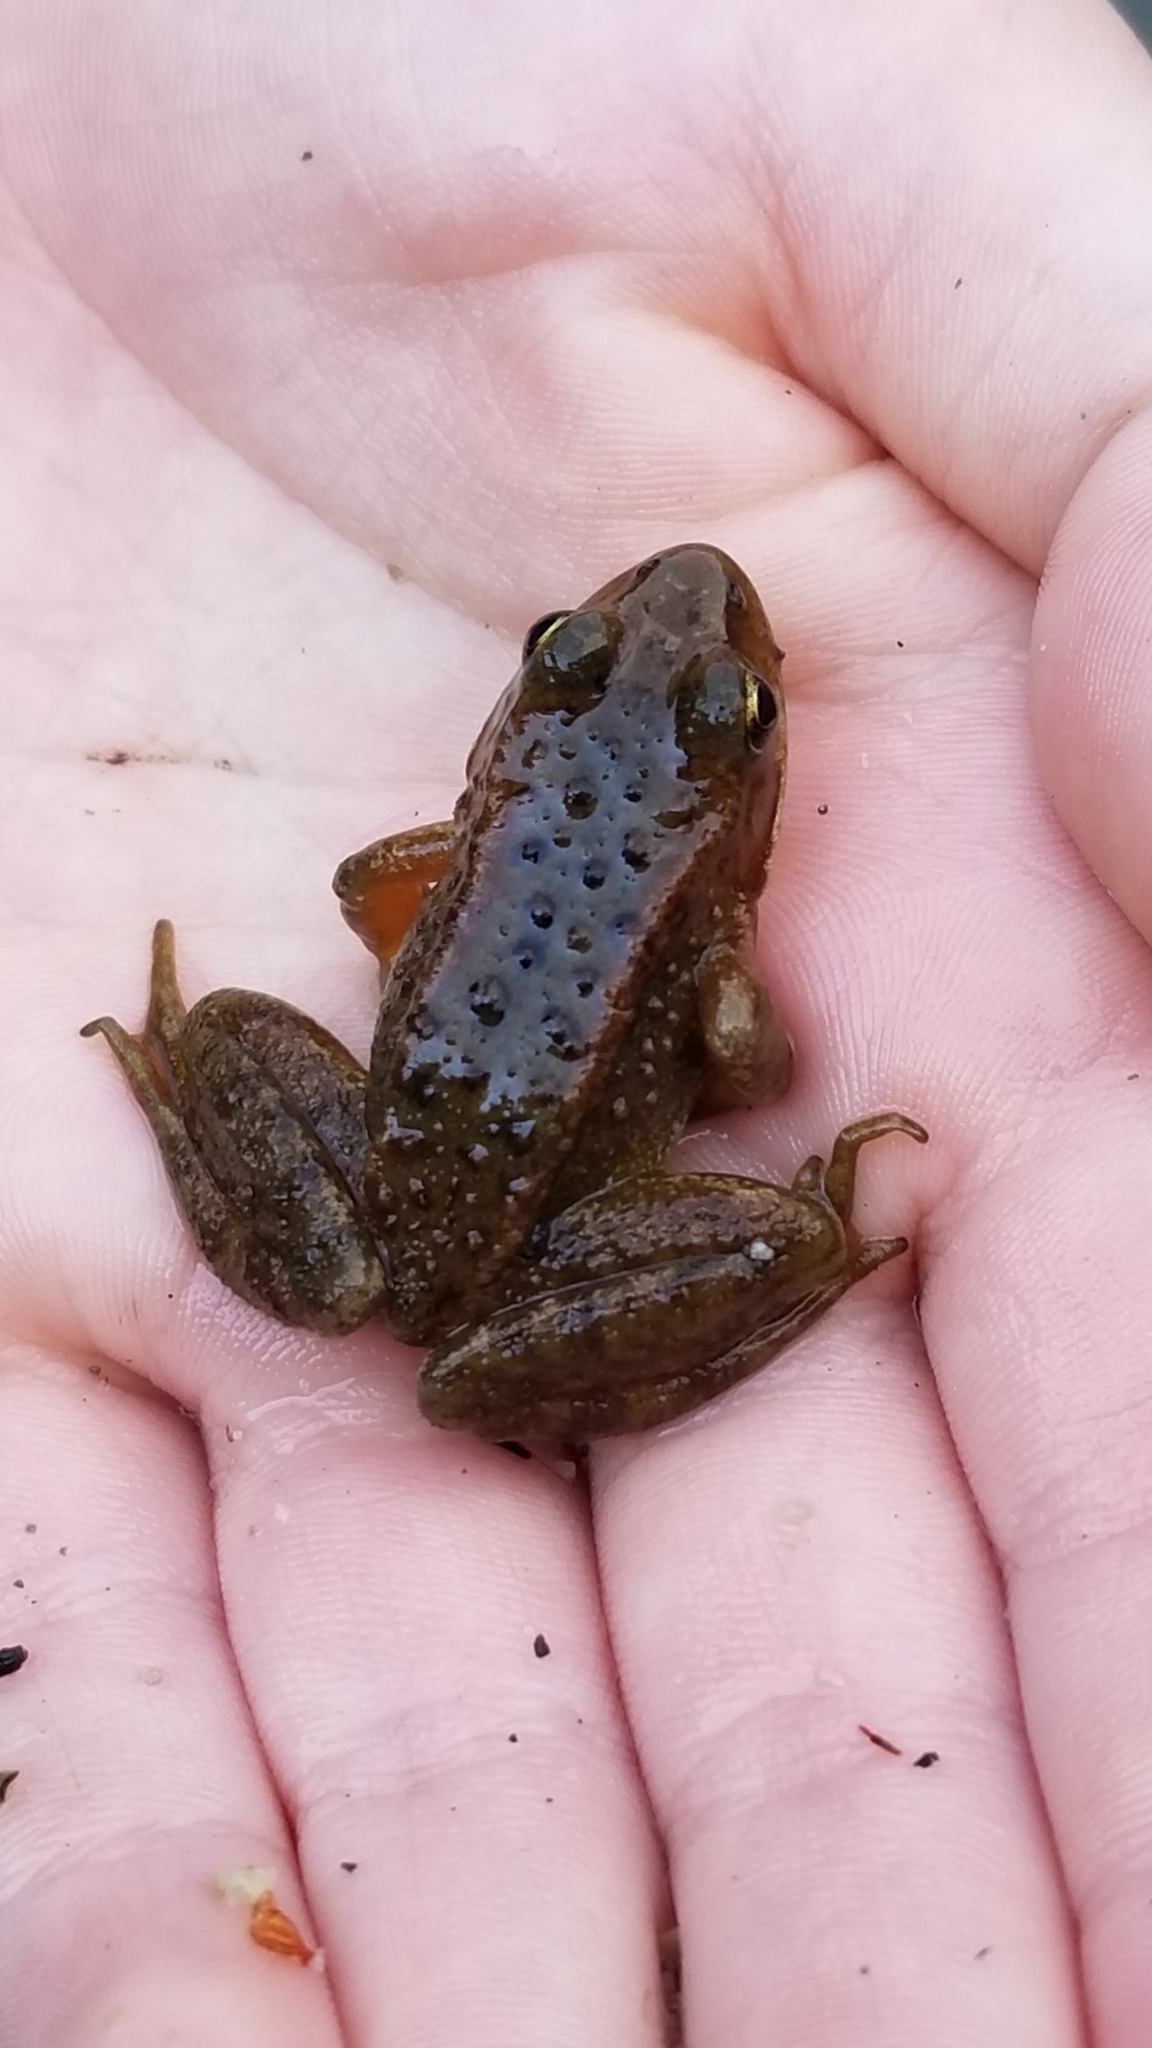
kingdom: Animalia
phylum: Chordata
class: Amphibia
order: Anura
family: Ranidae
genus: Rana
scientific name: Rana cascadae
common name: Cascades frog
